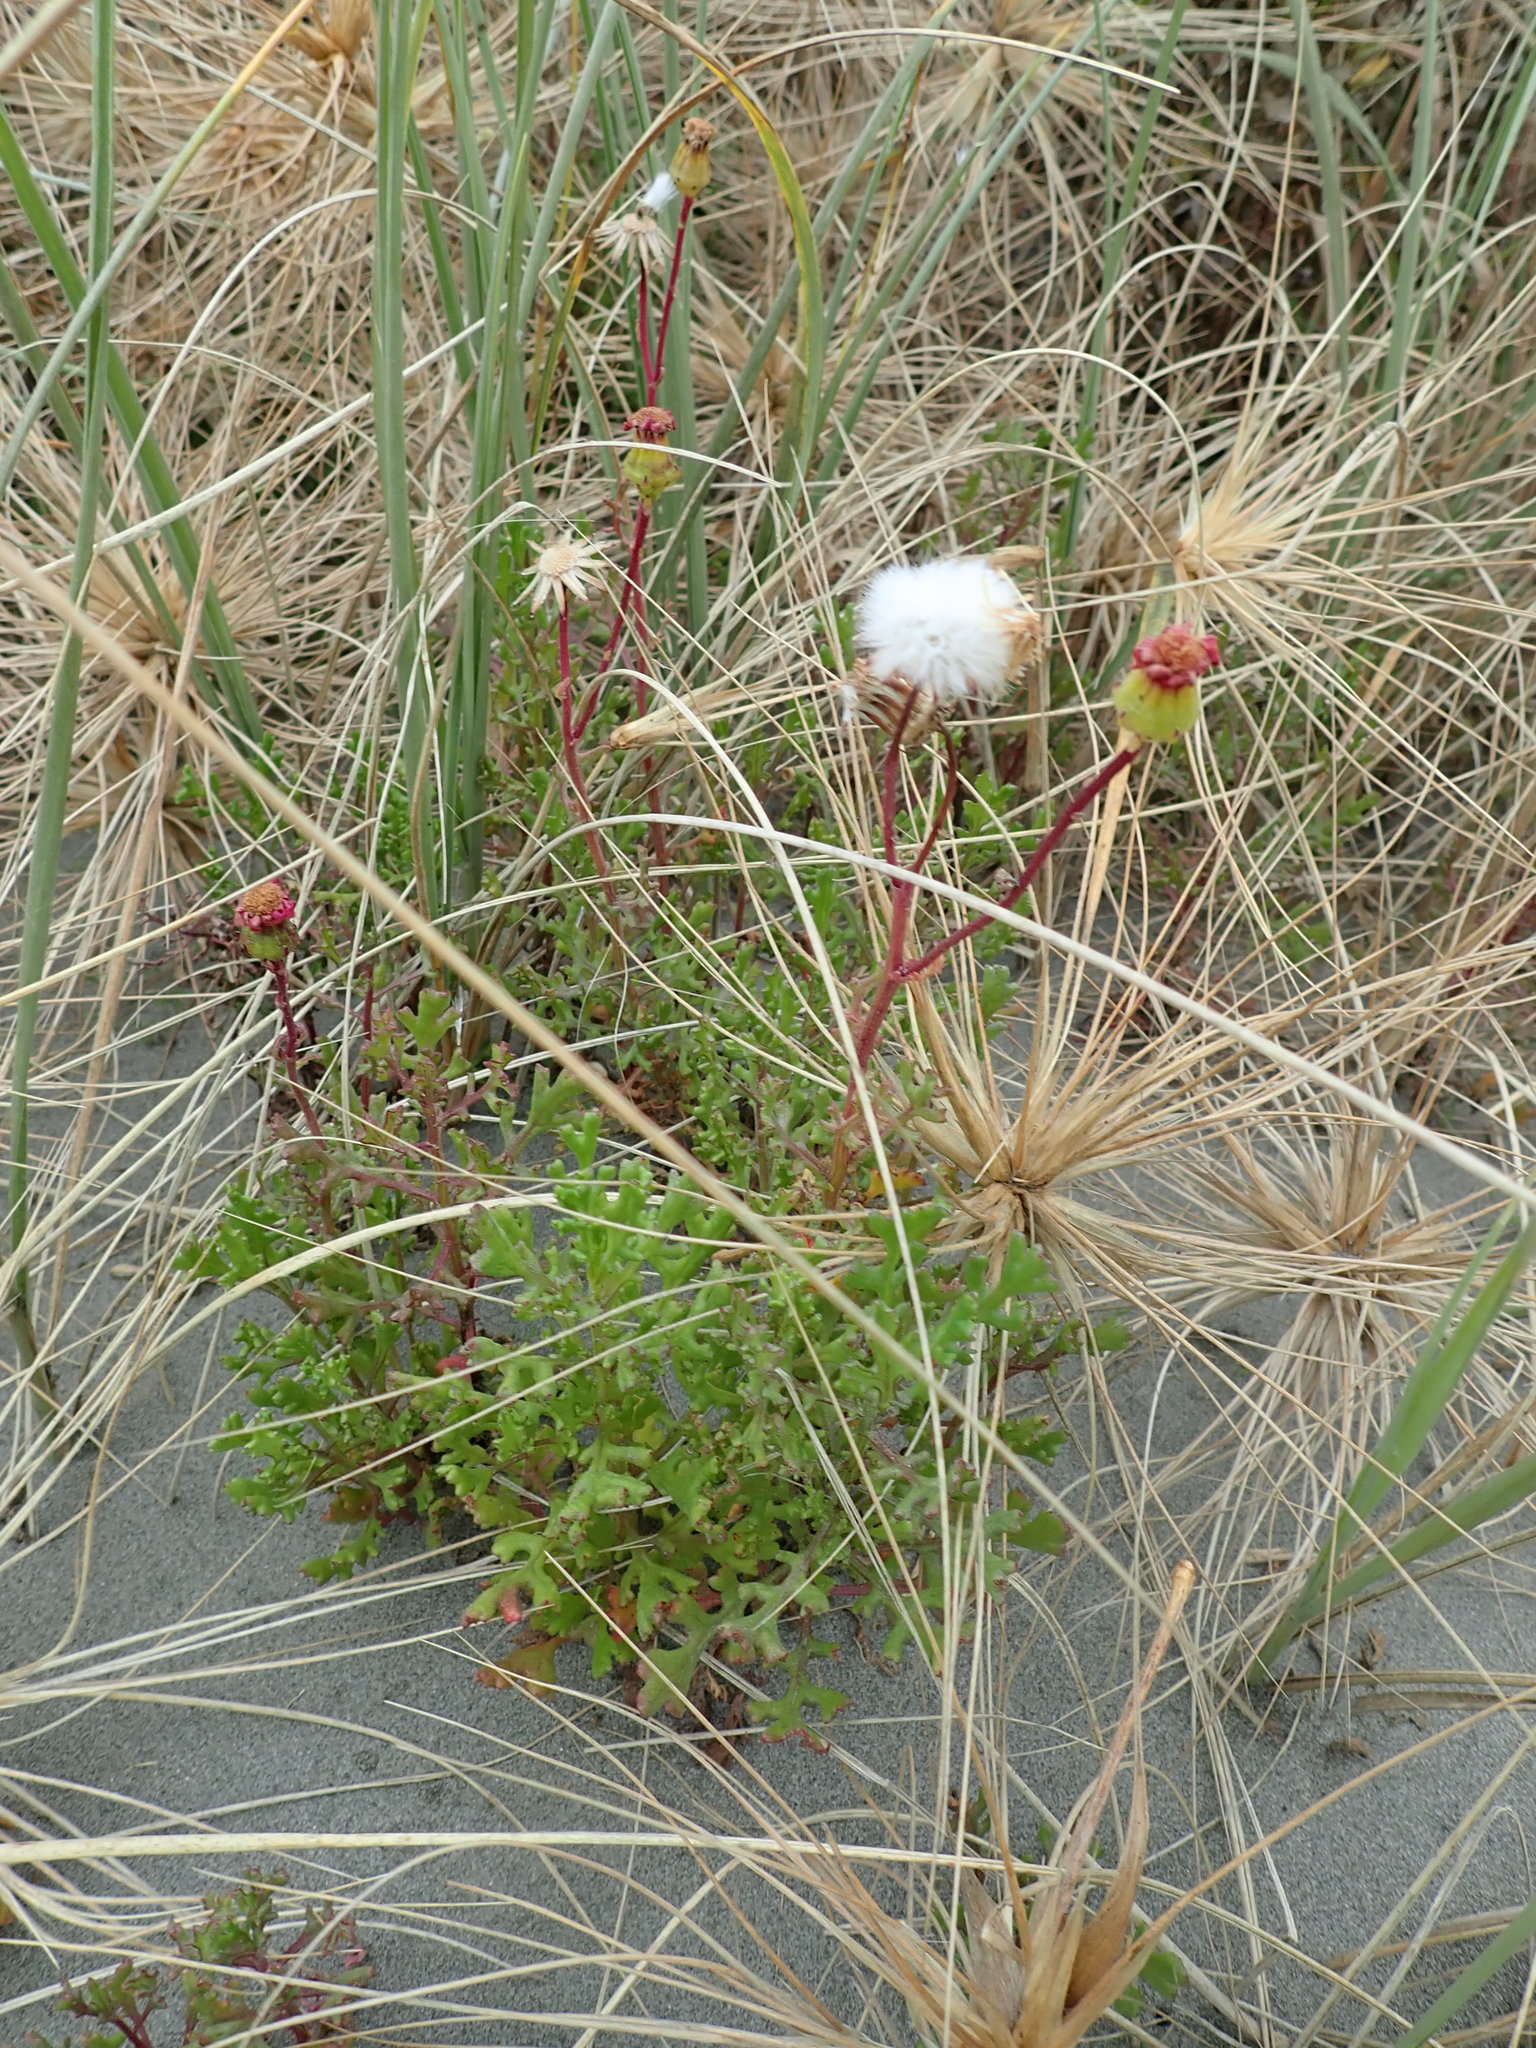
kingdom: Plantae
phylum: Tracheophyta
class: Magnoliopsida
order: Asterales
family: Asteraceae
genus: Senecio
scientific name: Senecio elegans
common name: Purple groundsel
